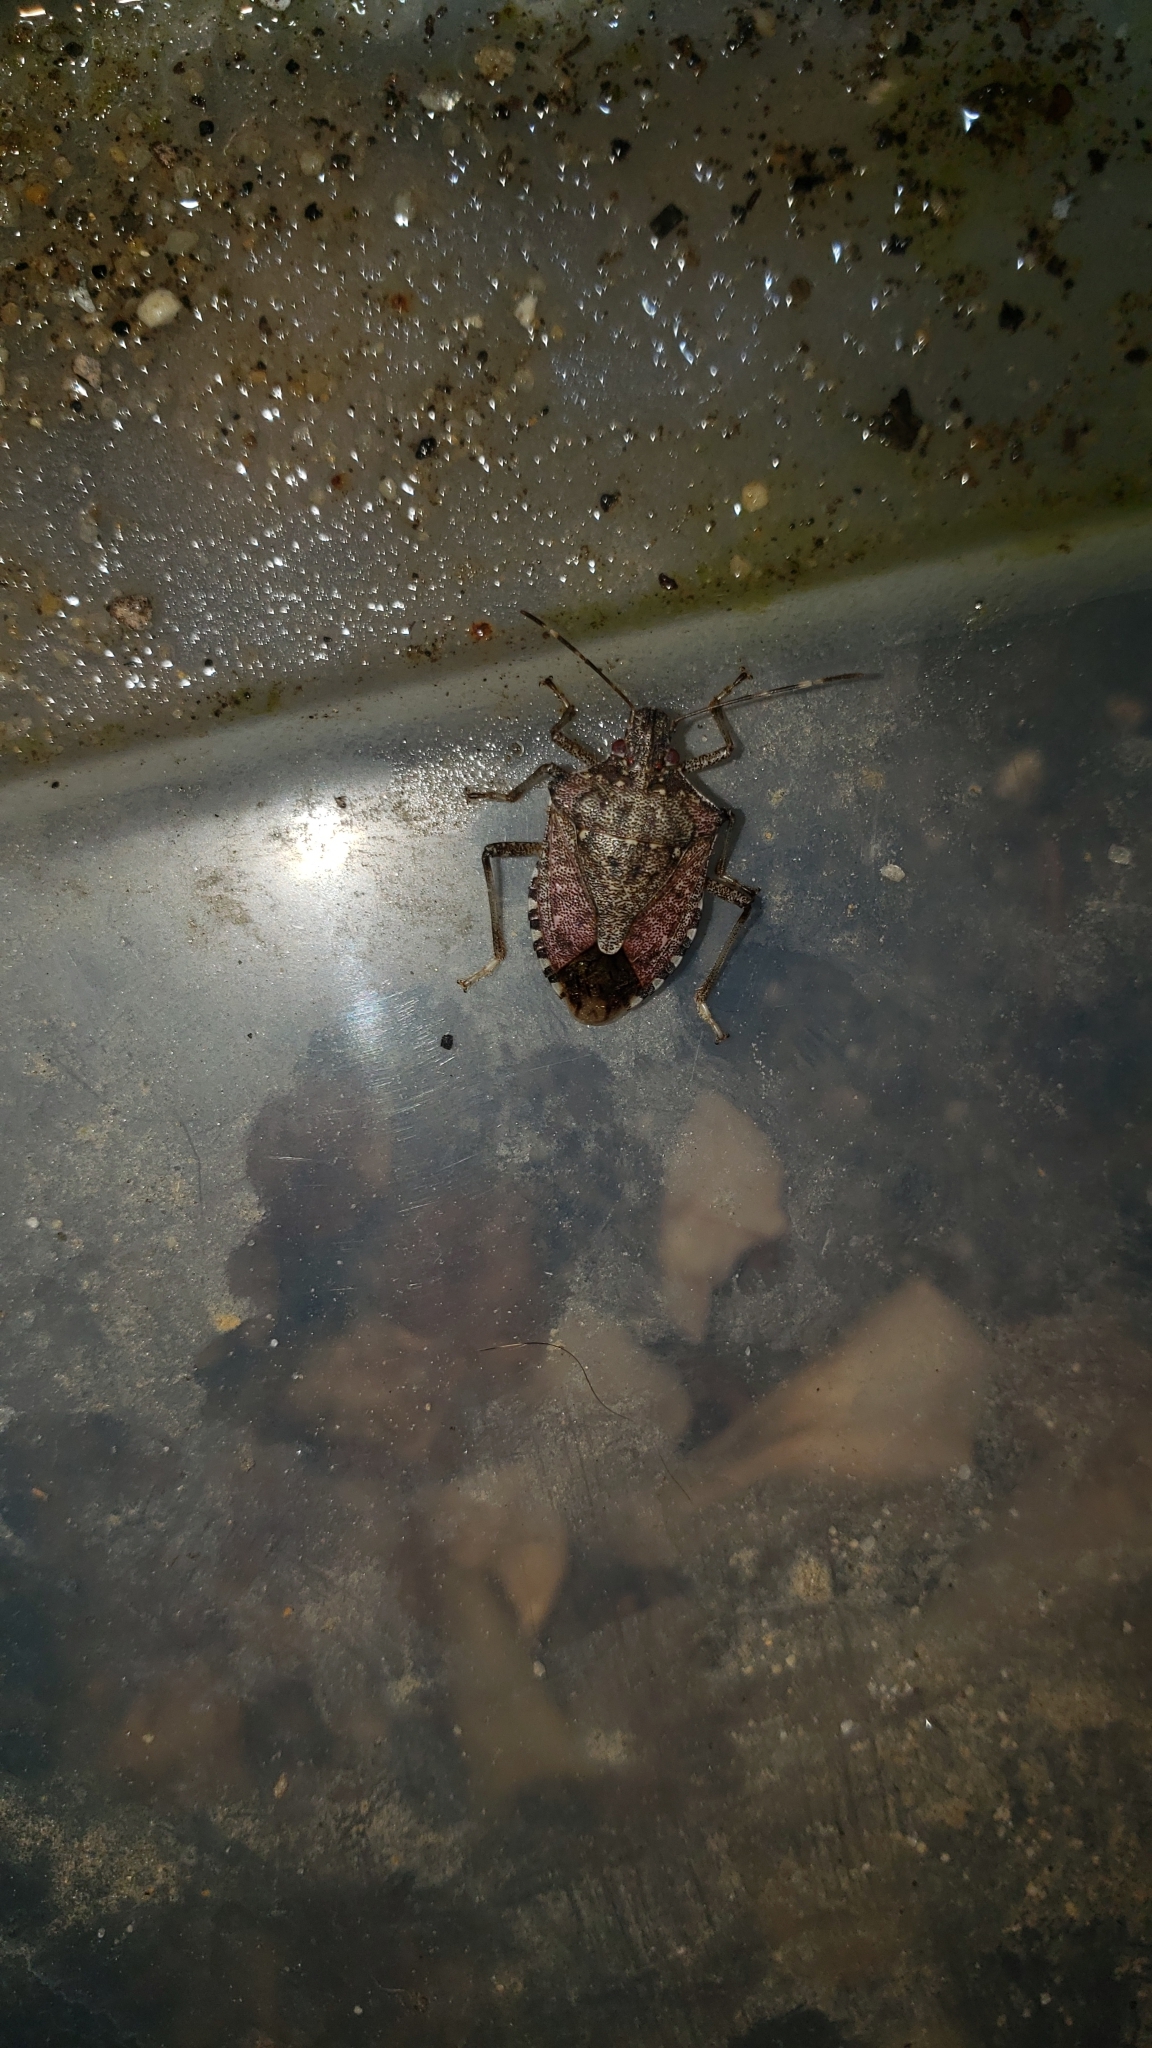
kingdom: Animalia
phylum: Arthropoda
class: Insecta
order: Hemiptera
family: Pentatomidae
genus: Halyomorpha
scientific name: Halyomorpha halys
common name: Brown marmorated stink bug
